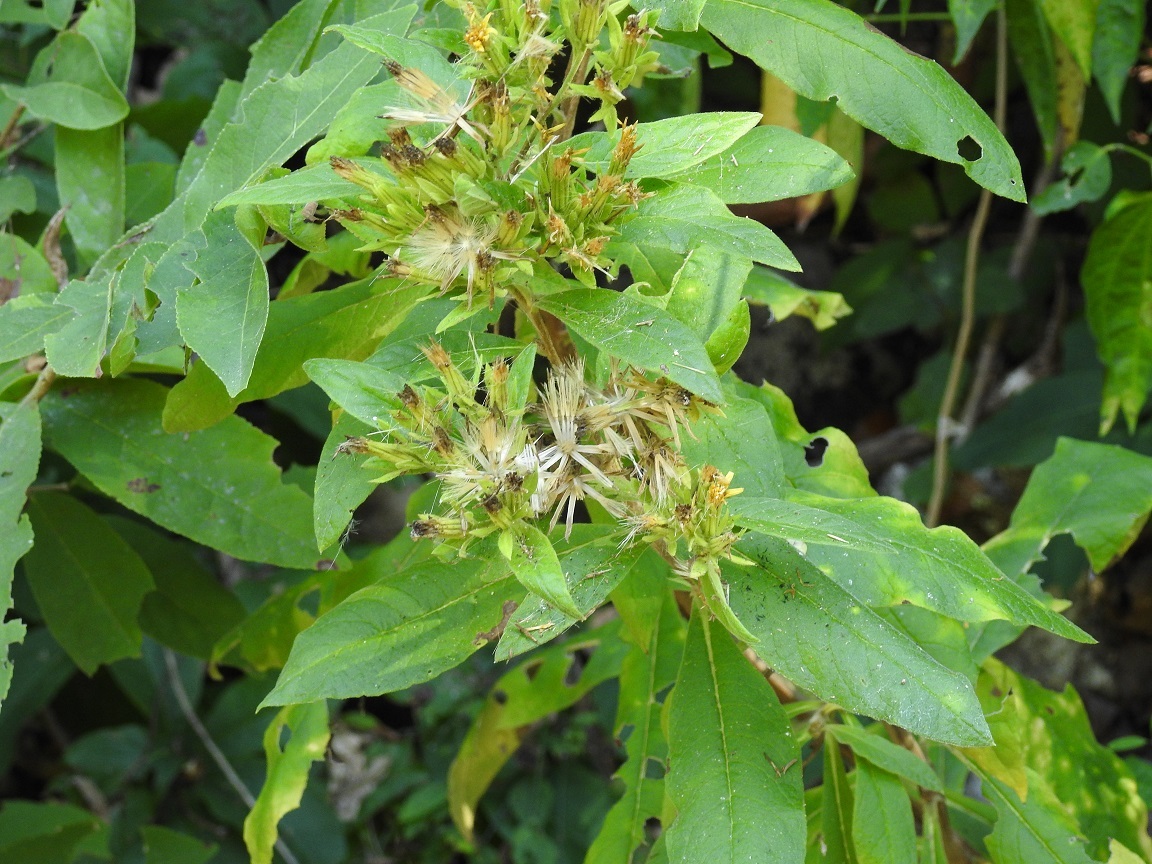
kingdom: Plantae
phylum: Tracheophyta
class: Magnoliopsida
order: Asterales
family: Asteraceae
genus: Trixis
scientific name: Trixis inula
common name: Tropical threefold
